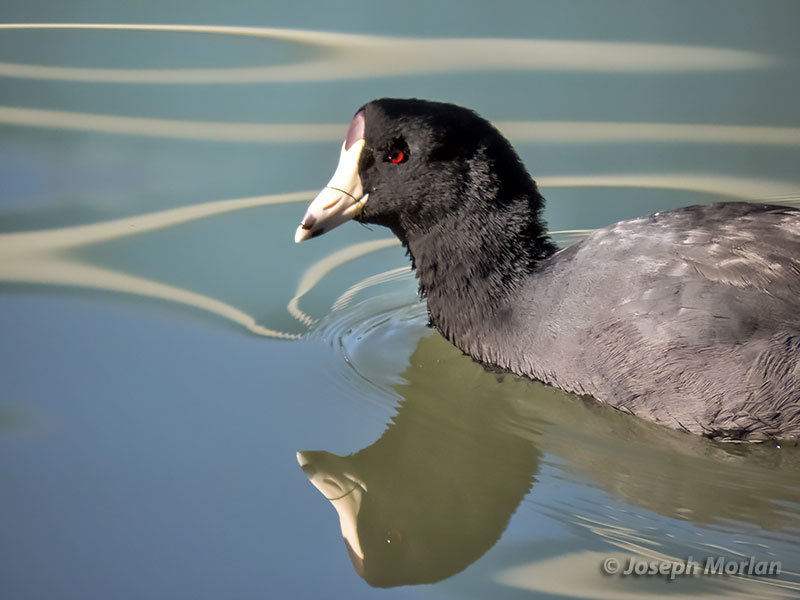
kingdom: Animalia
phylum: Chordata
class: Aves
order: Gruiformes
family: Rallidae
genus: Fulica
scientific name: Fulica americana
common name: American coot
